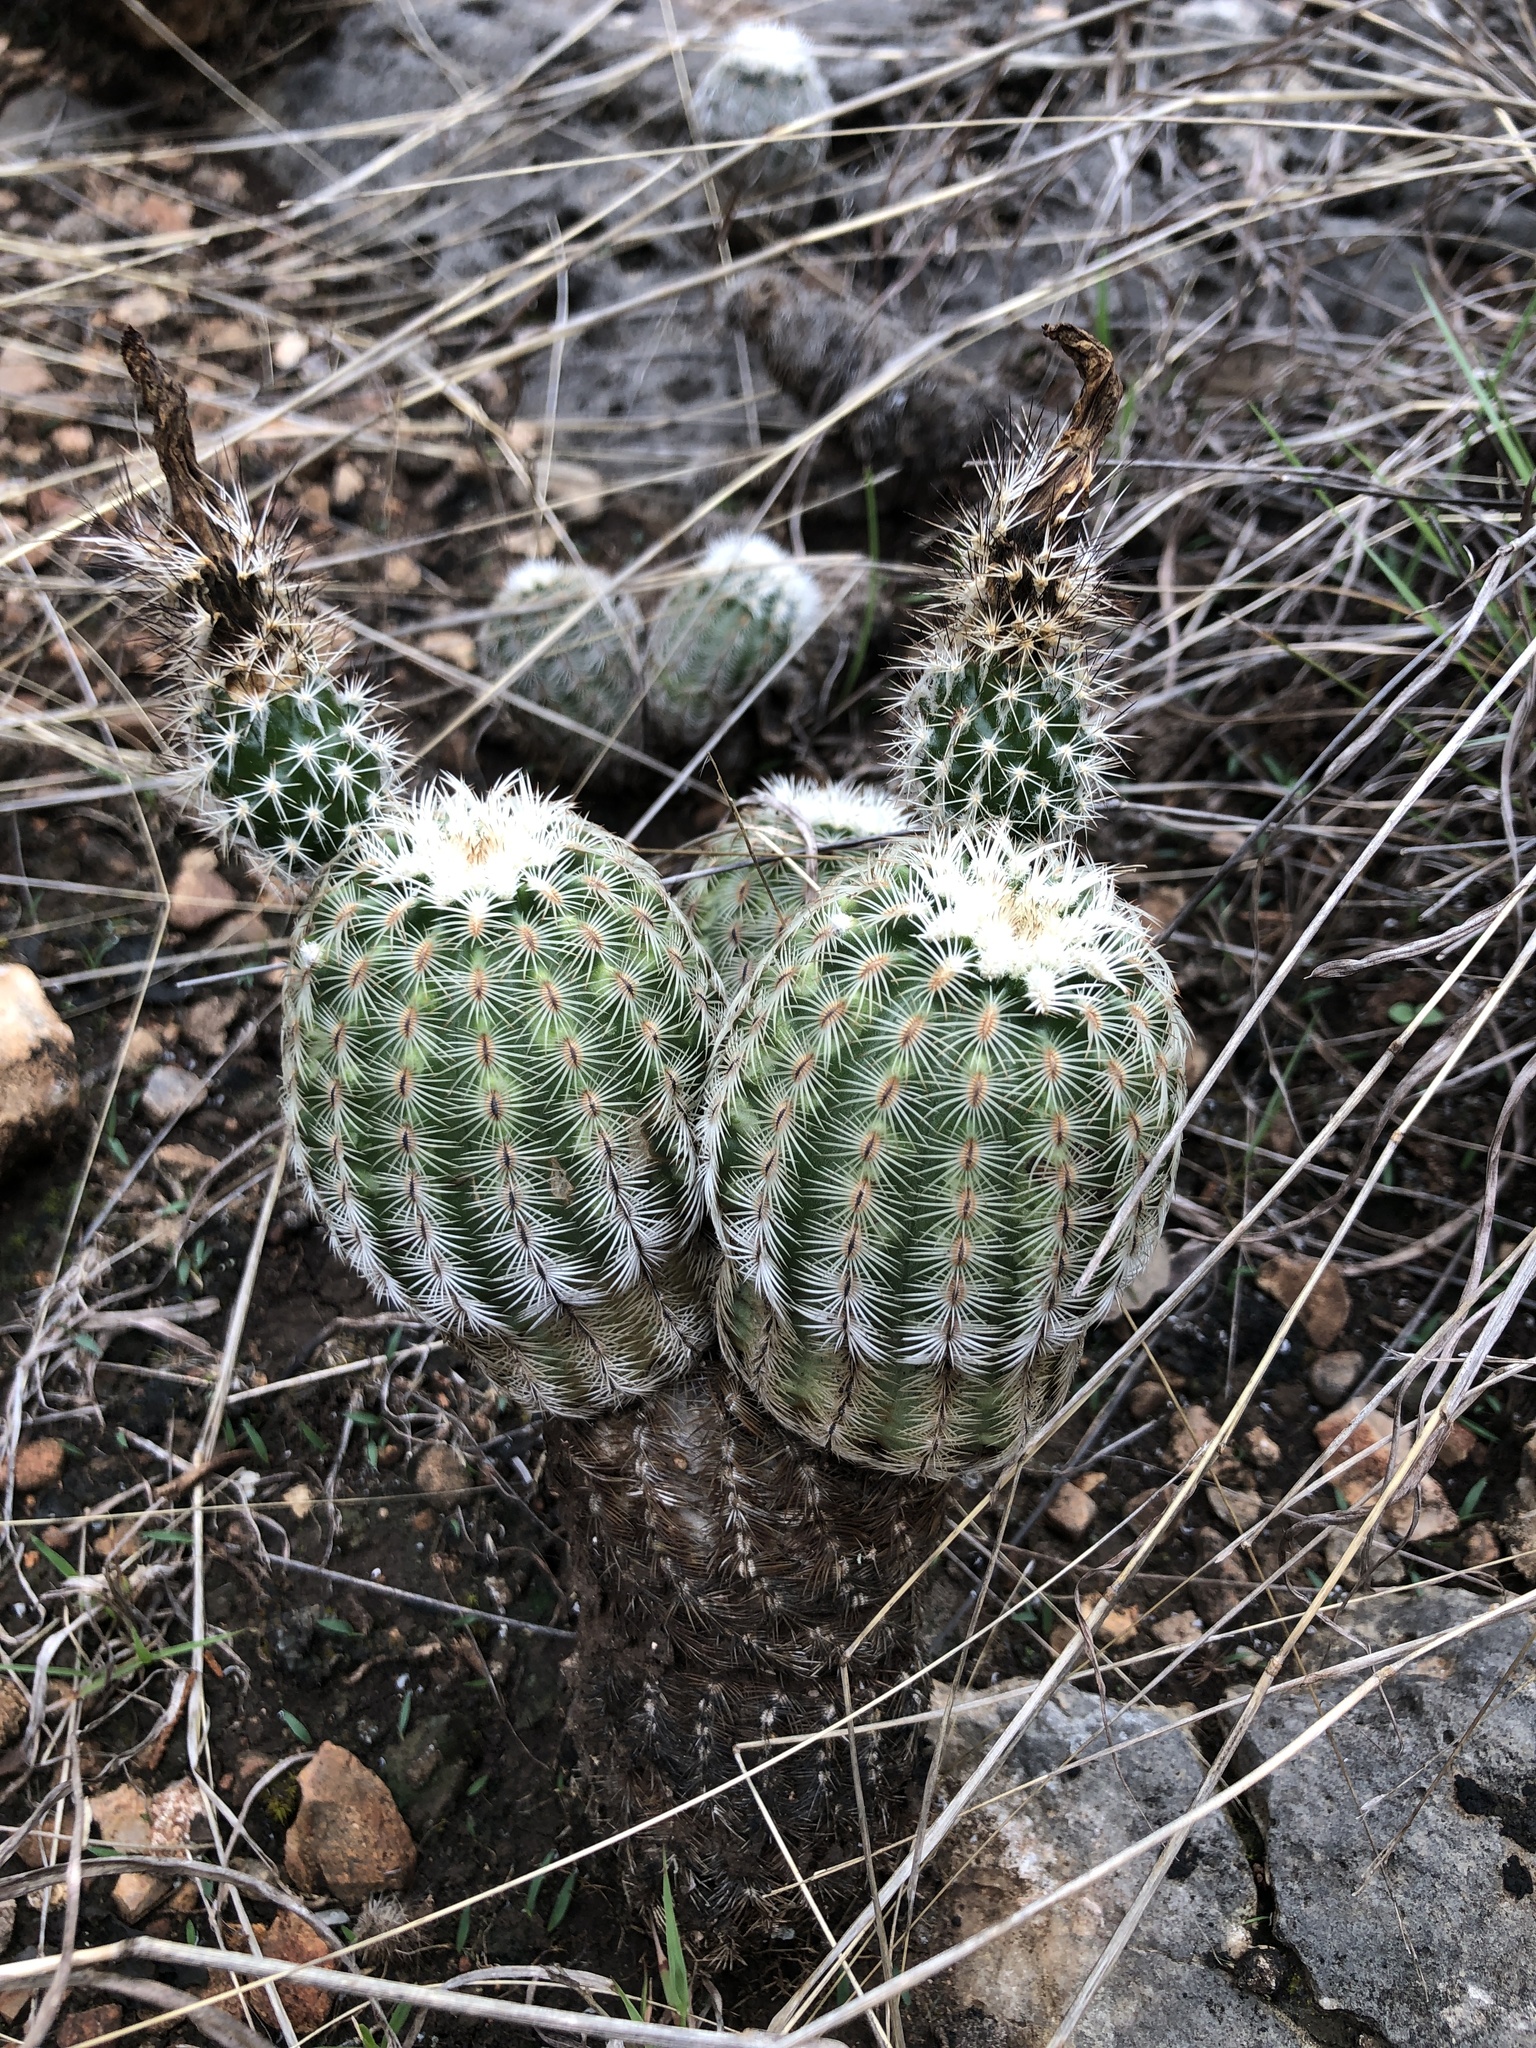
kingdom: Plantae
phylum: Tracheophyta
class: Magnoliopsida
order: Caryophyllales
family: Cactaceae
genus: Echinocereus
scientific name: Echinocereus reichenbachii
